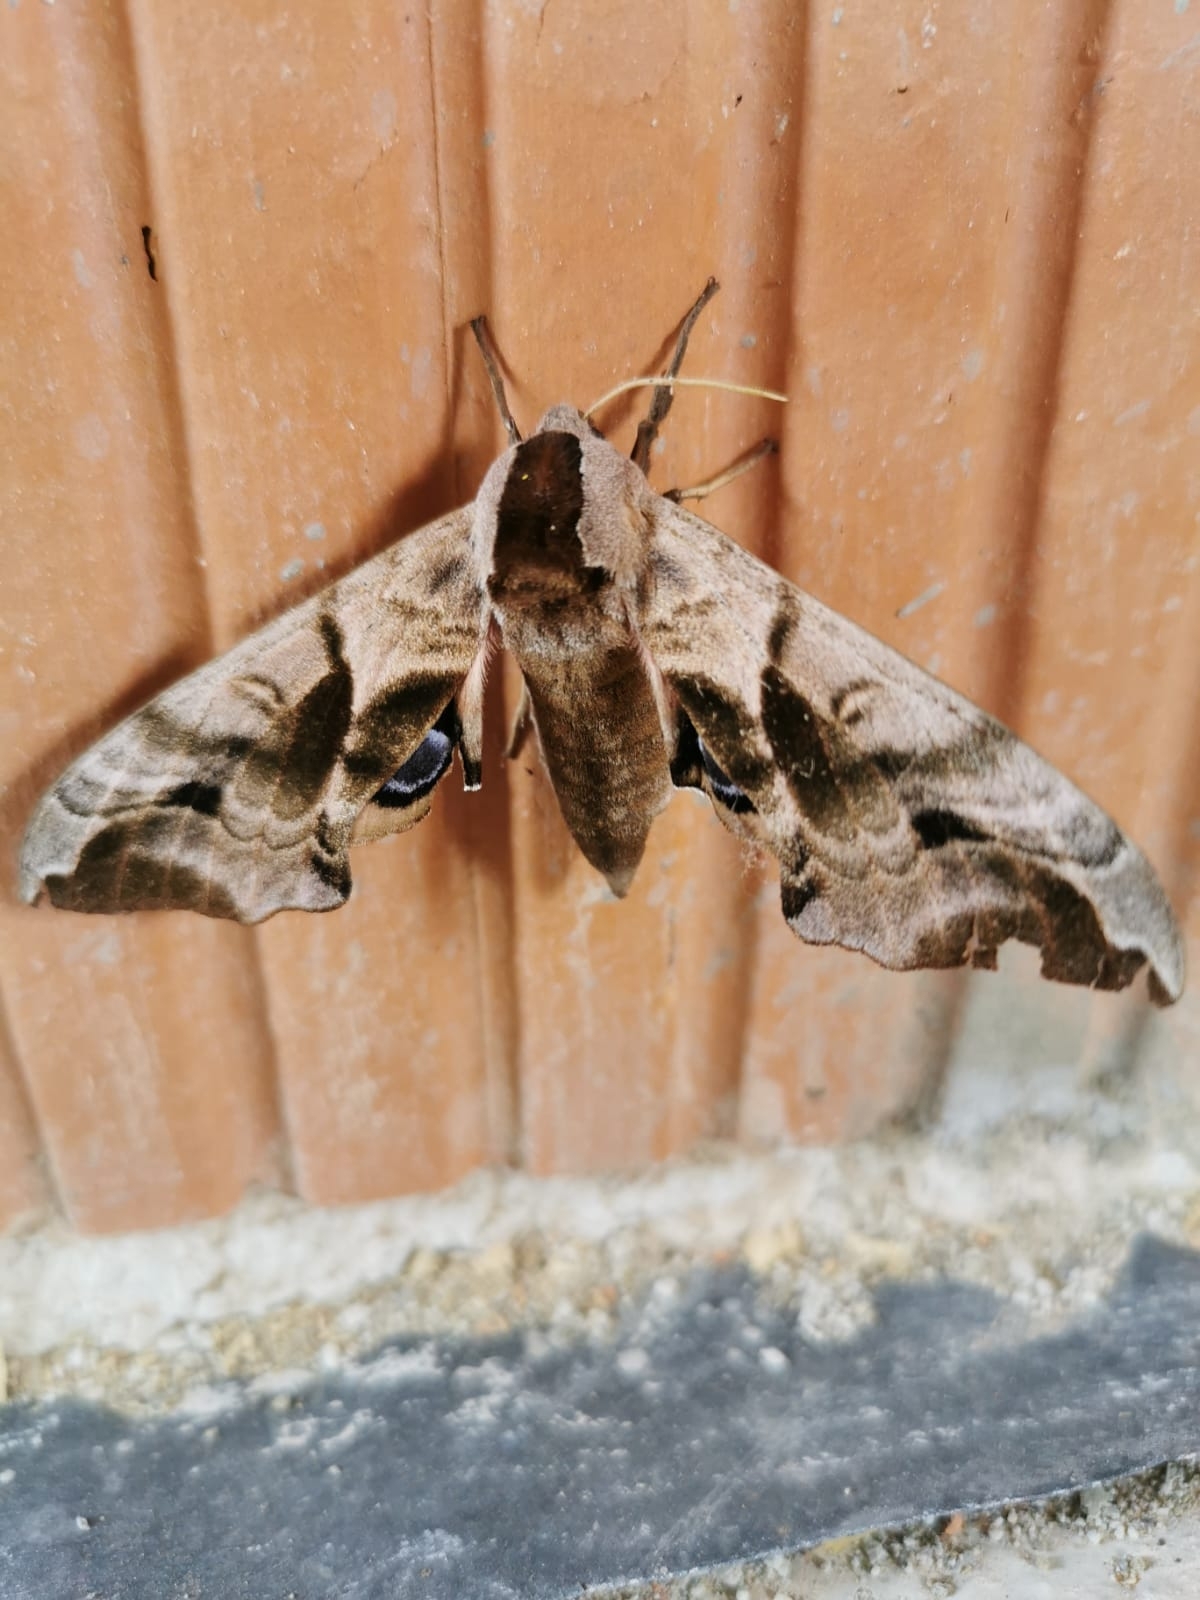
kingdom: Animalia
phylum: Arthropoda
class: Insecta
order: Lepidoptera
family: Sphingidae
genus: Smerinthus
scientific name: Smerinthus ocellata
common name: Eyed hawk-moth
